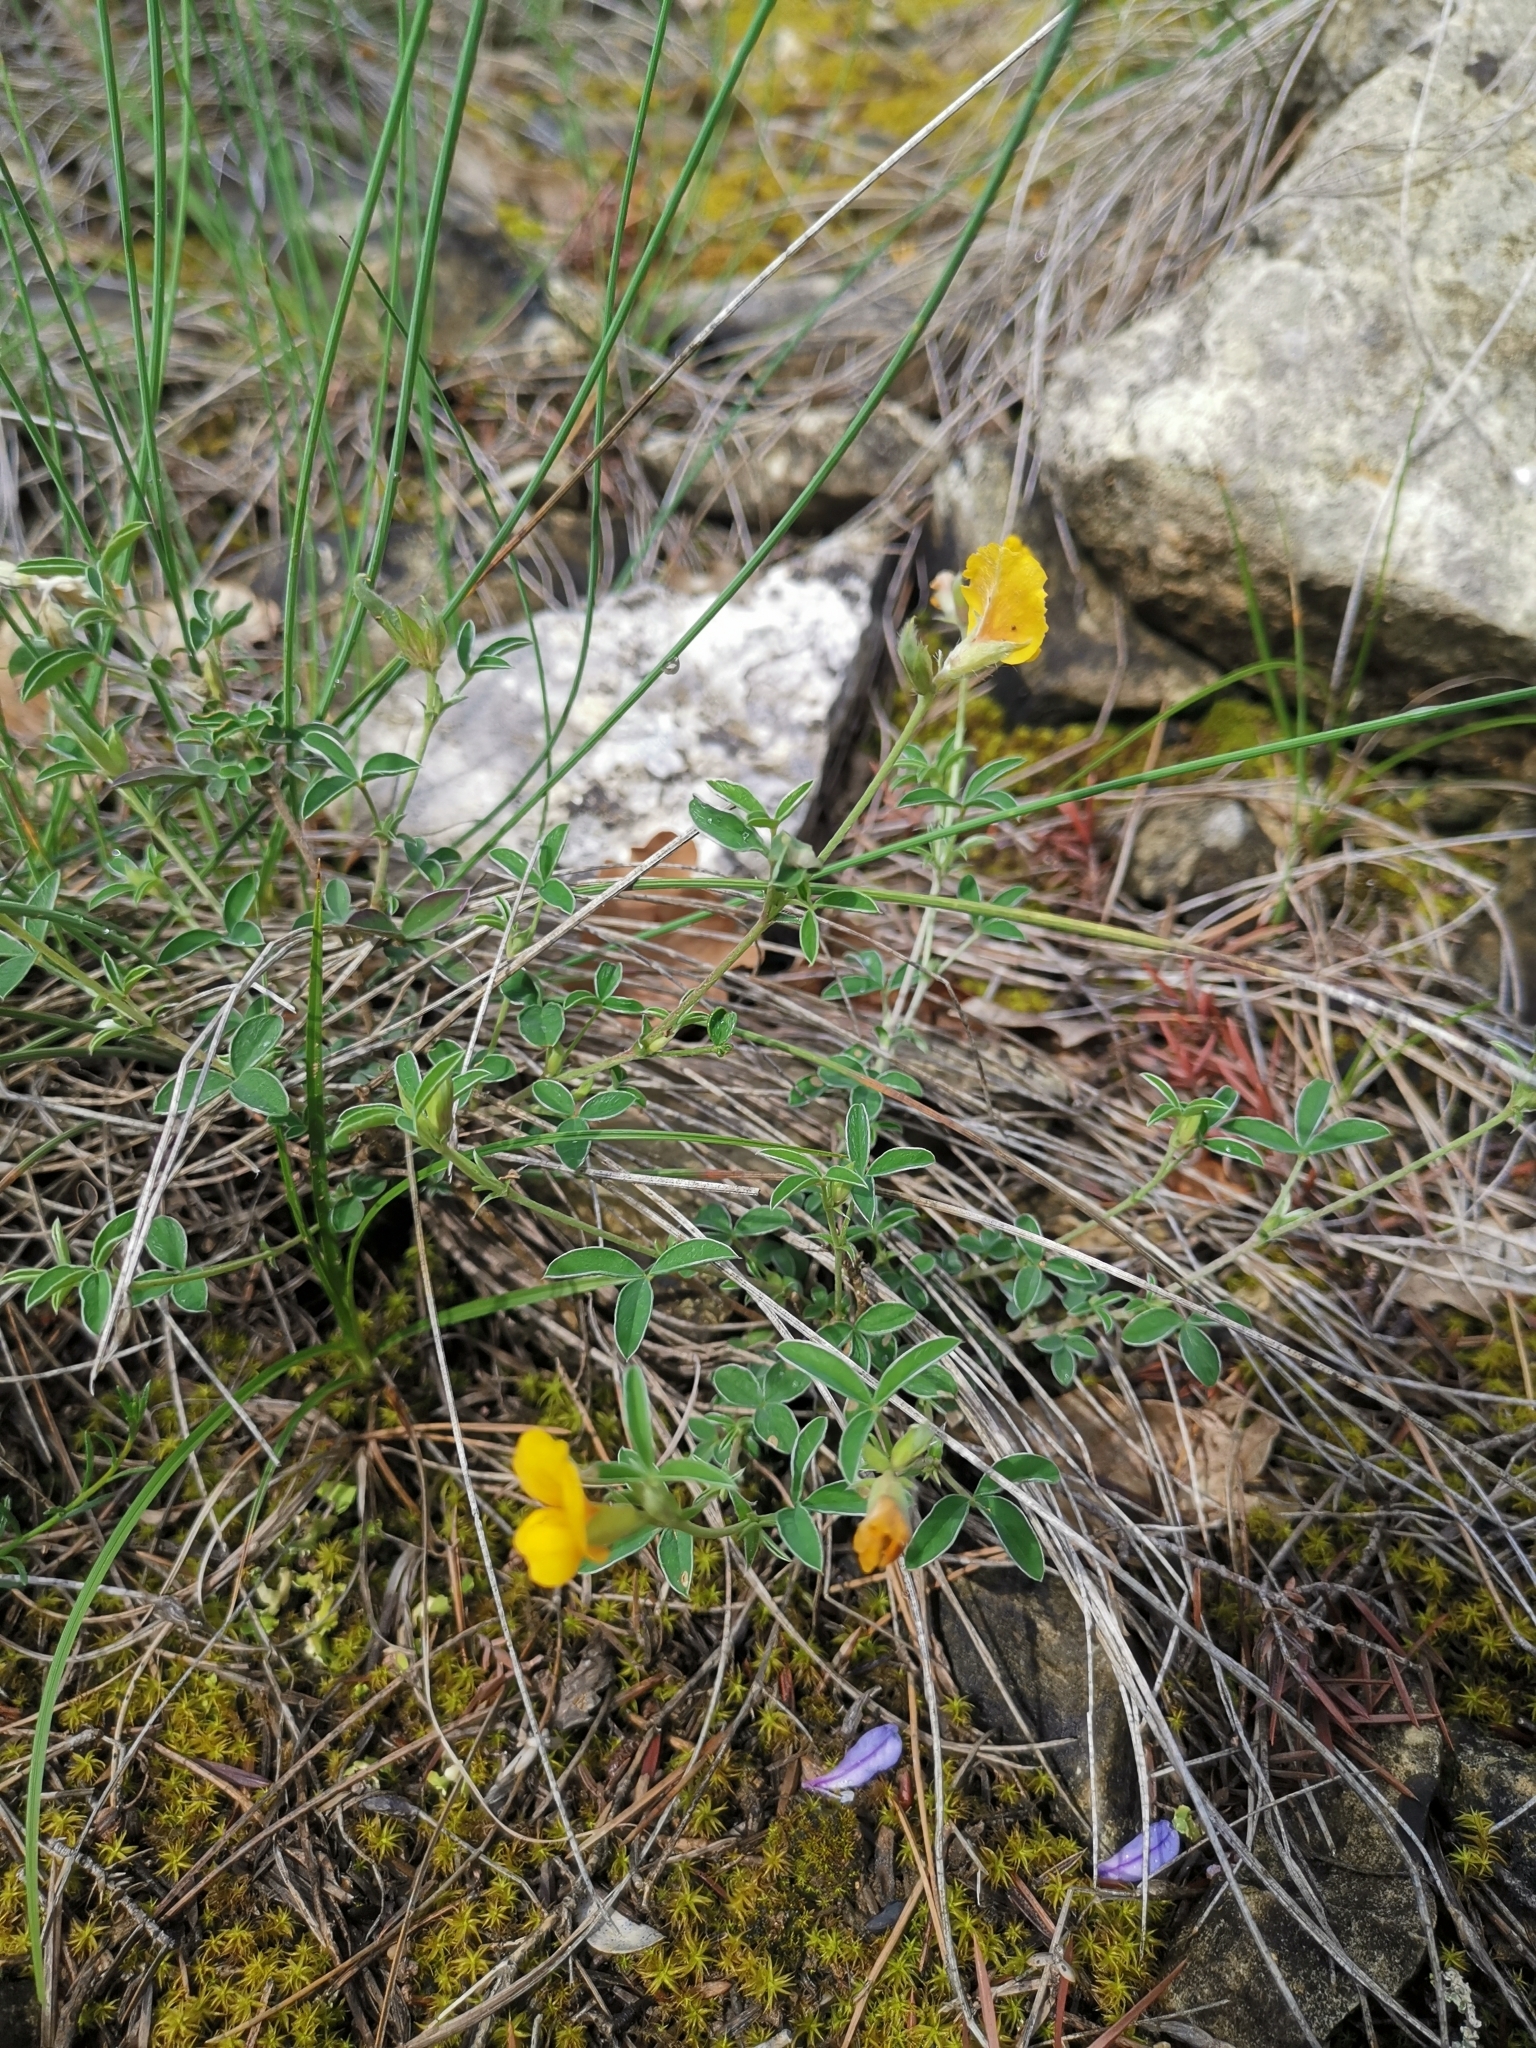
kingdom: Plantae
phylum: Tracheophyta
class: Magnoliopsida
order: Fabales
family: Fabaceae
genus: Argyrolobium
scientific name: Argyrolobium zanonii
